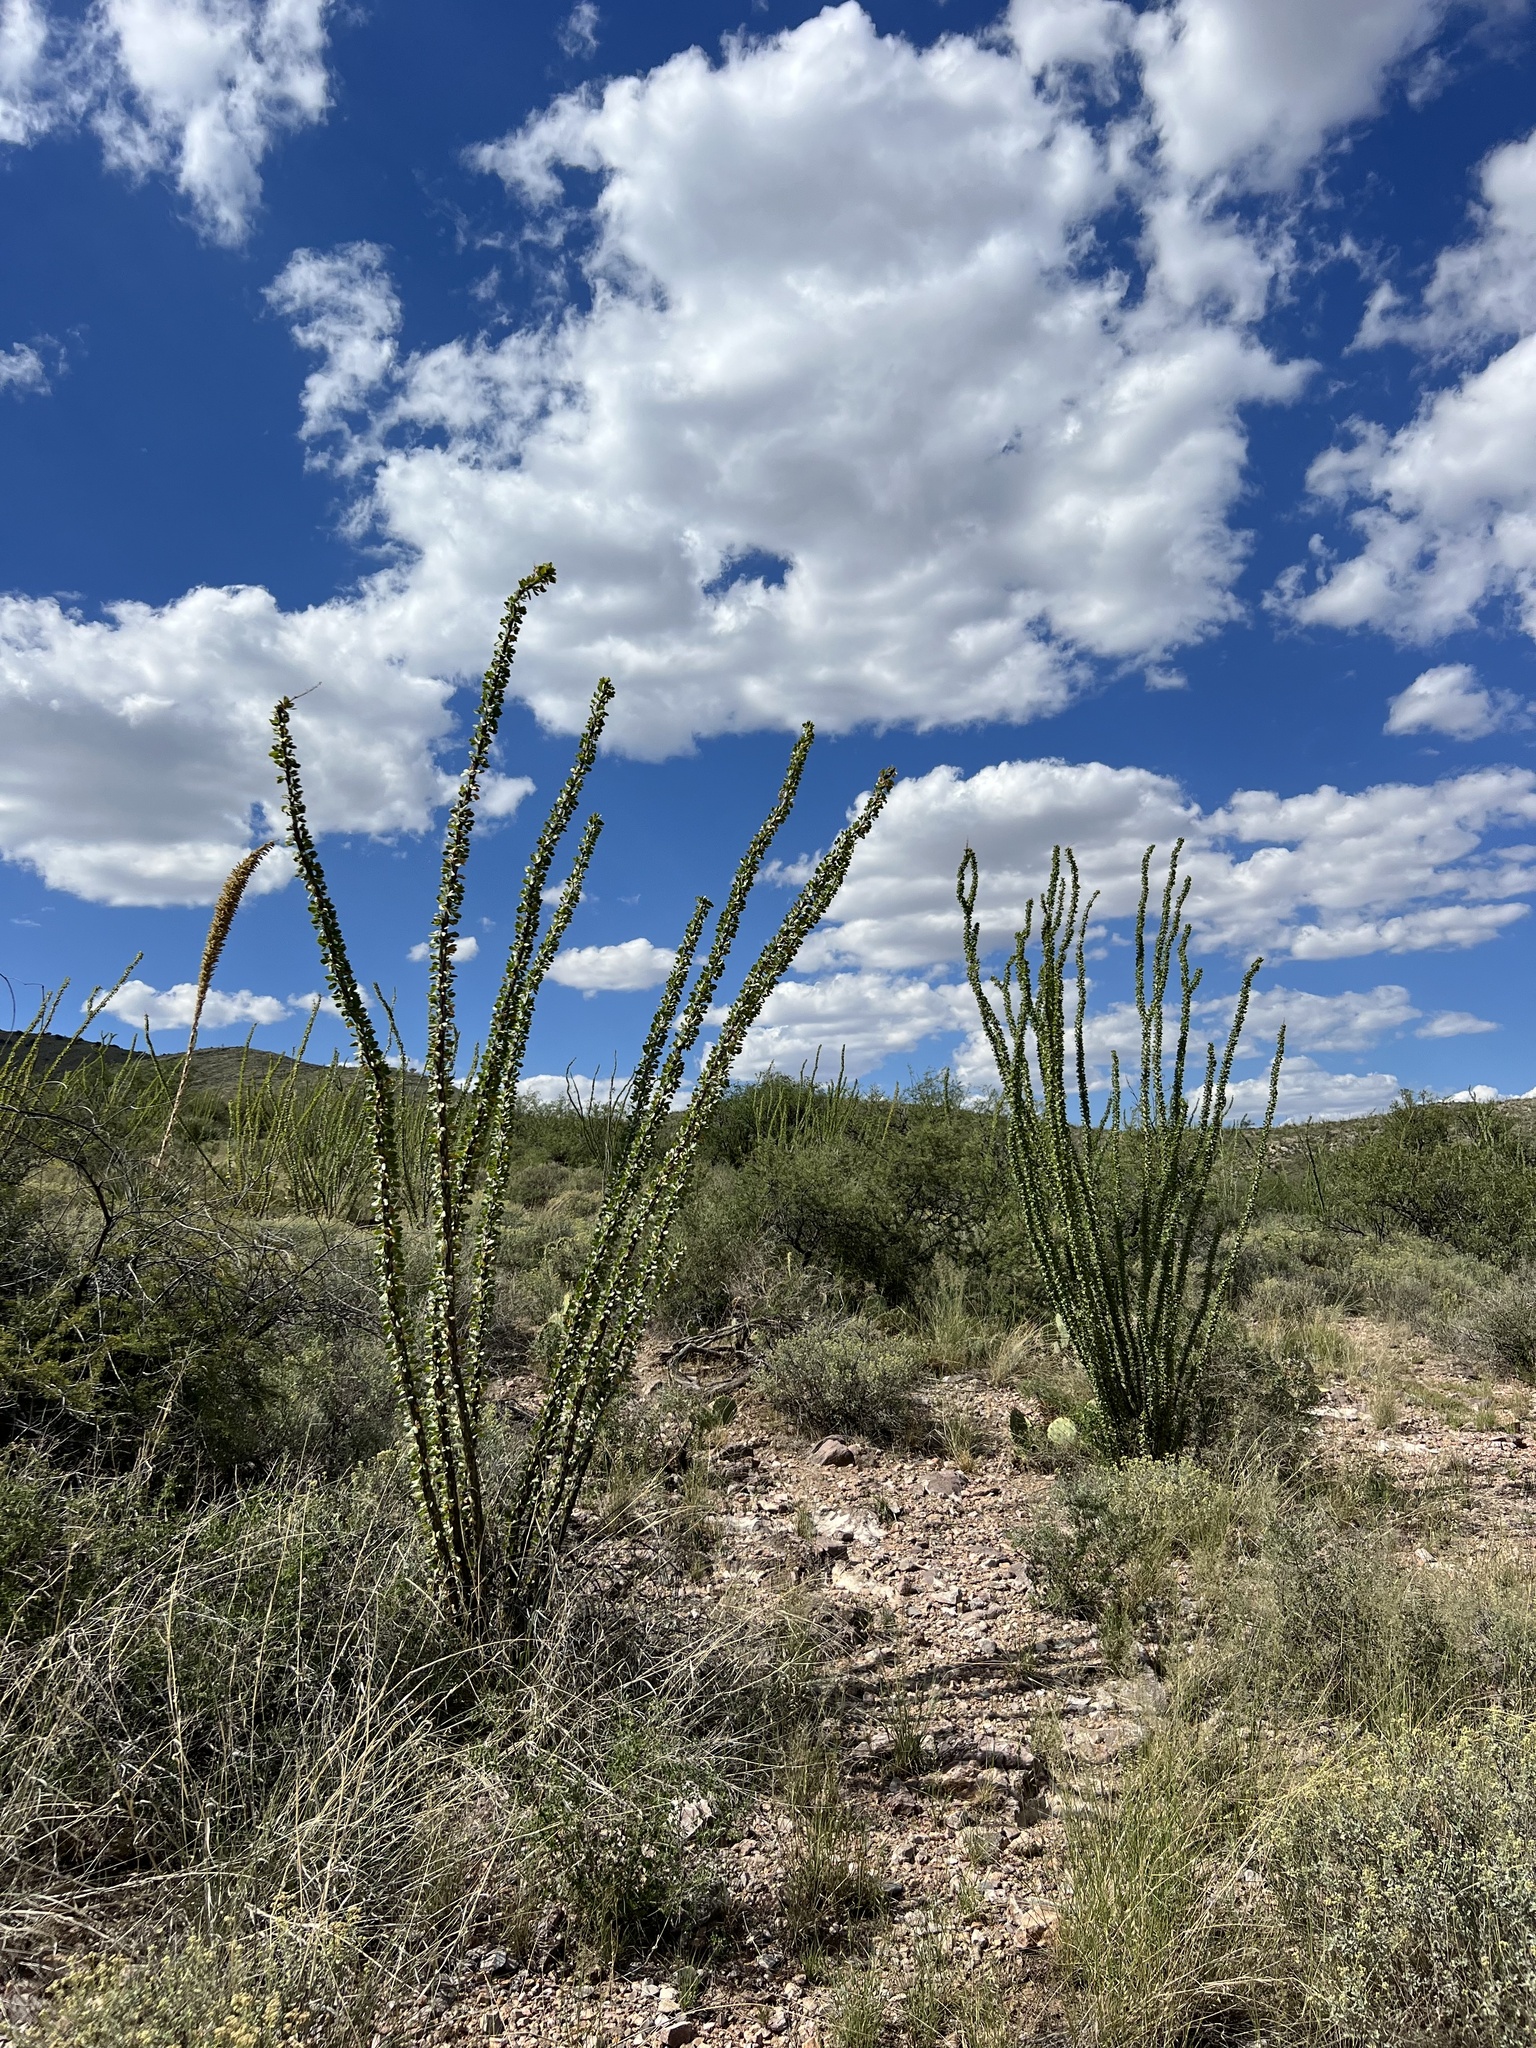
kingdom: Plantae
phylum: Tracheophyta
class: Magnoliopsida
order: Ericales
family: Fouquieriaceae
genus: Fouquieria
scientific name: Fouquieria splendens
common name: Vine-cactus
